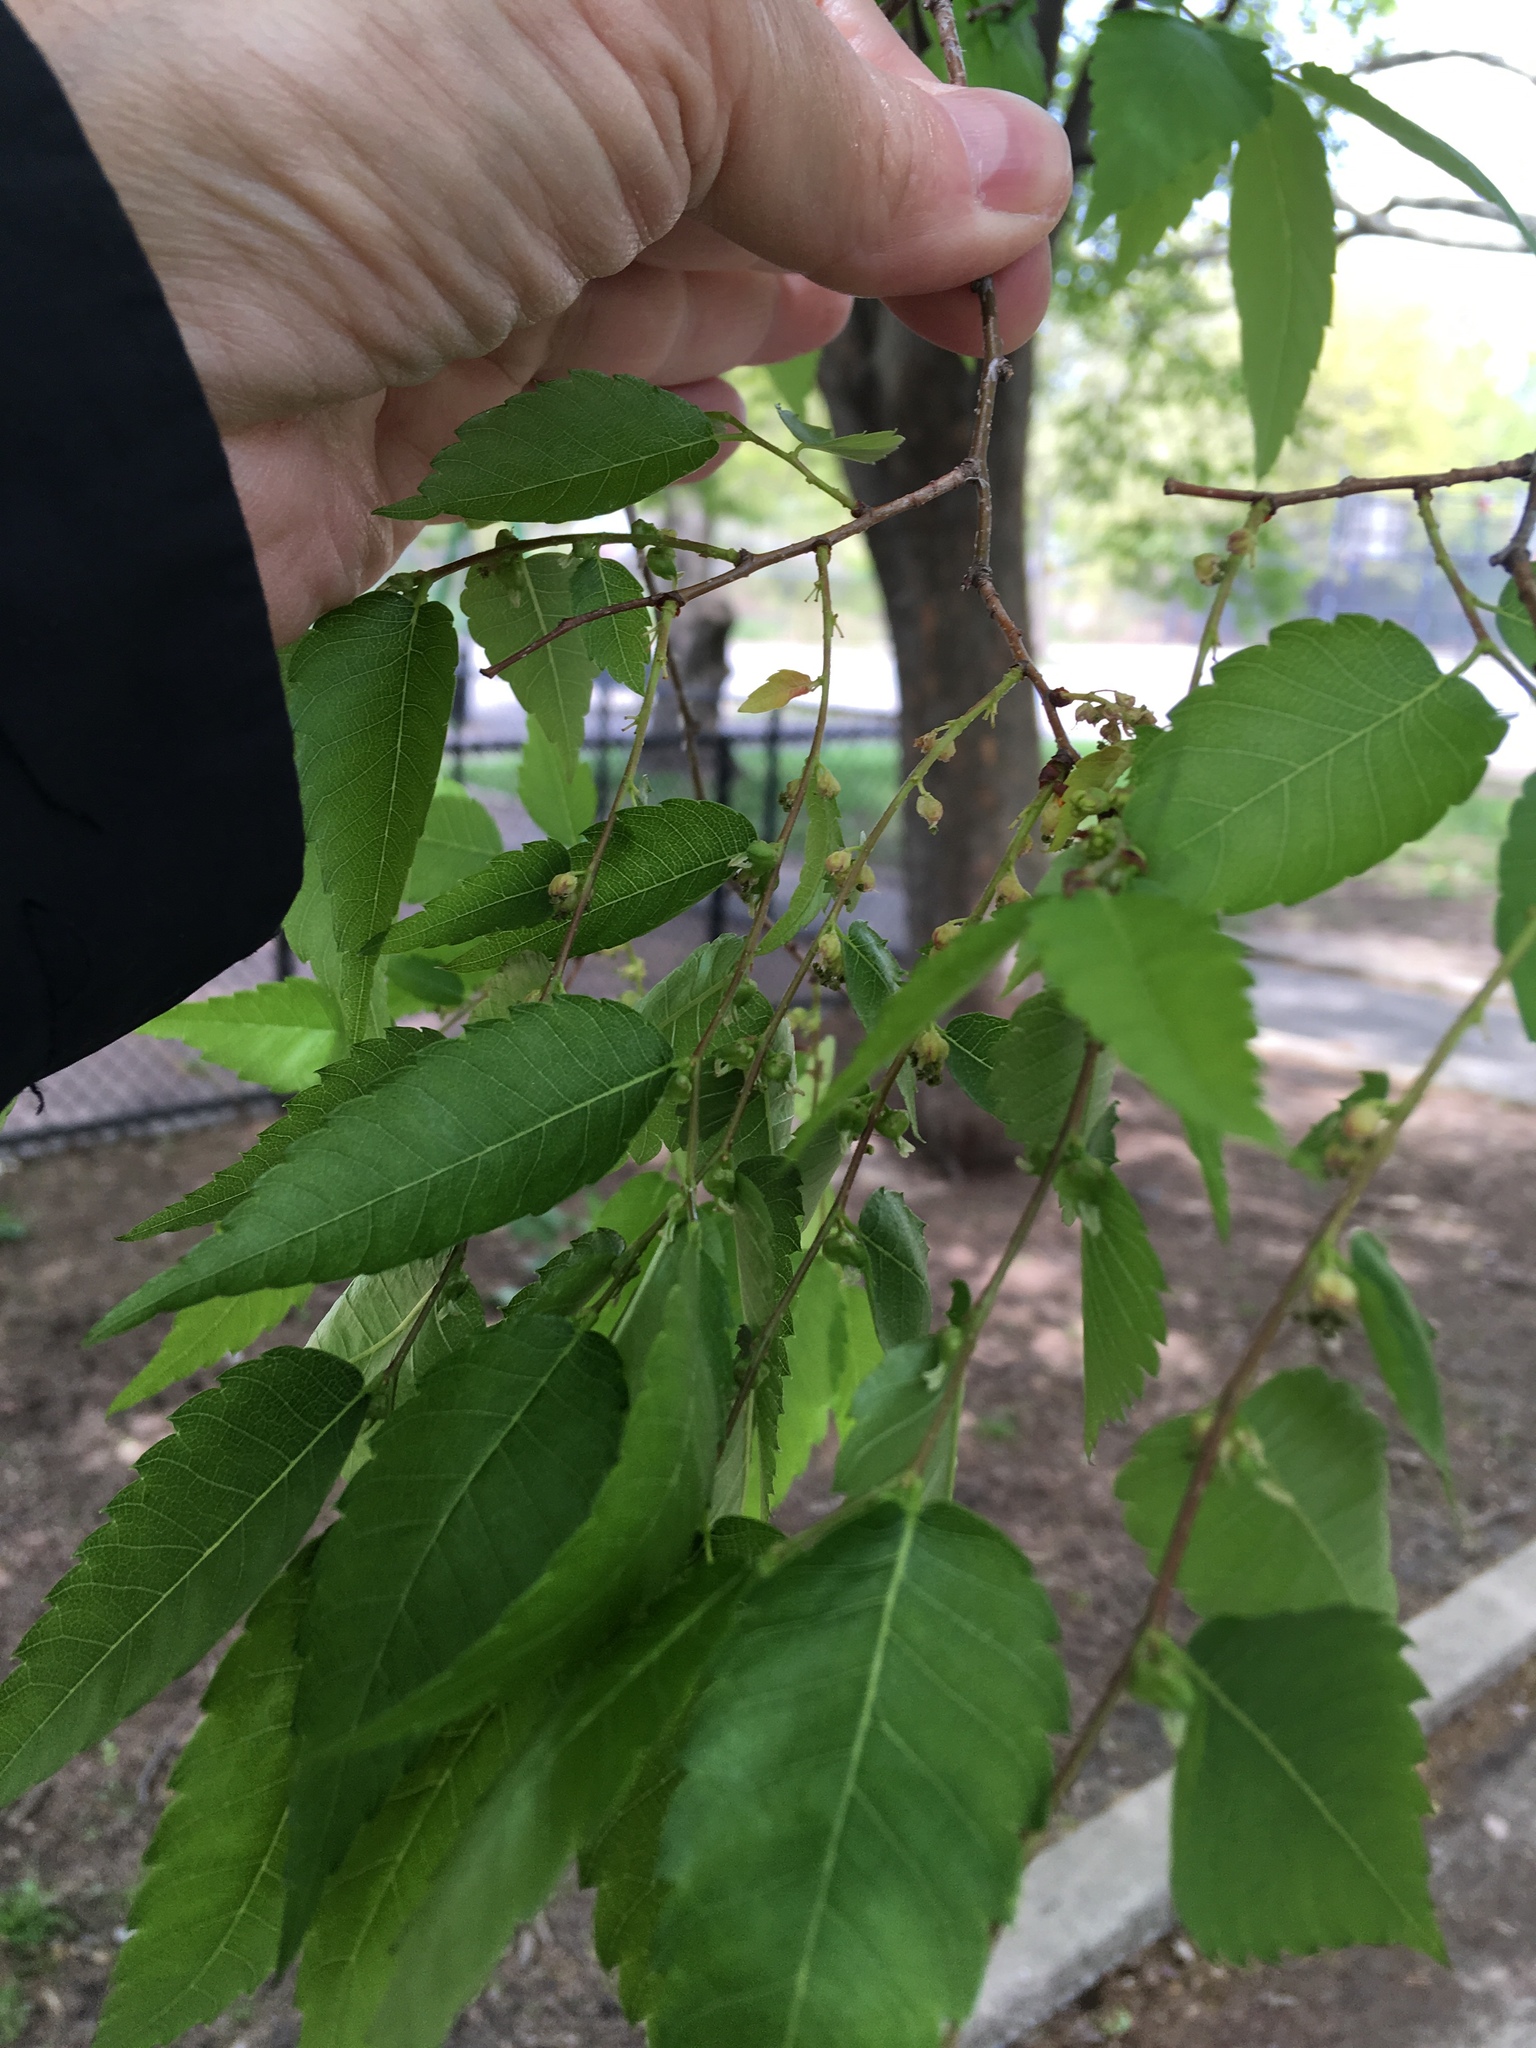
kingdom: Plantae
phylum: Tracheophyta
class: Magnoliopsida
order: Rosales
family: Ulmaceae
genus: Zelkova
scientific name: Zelkova serrata
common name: Japanese zelkova
